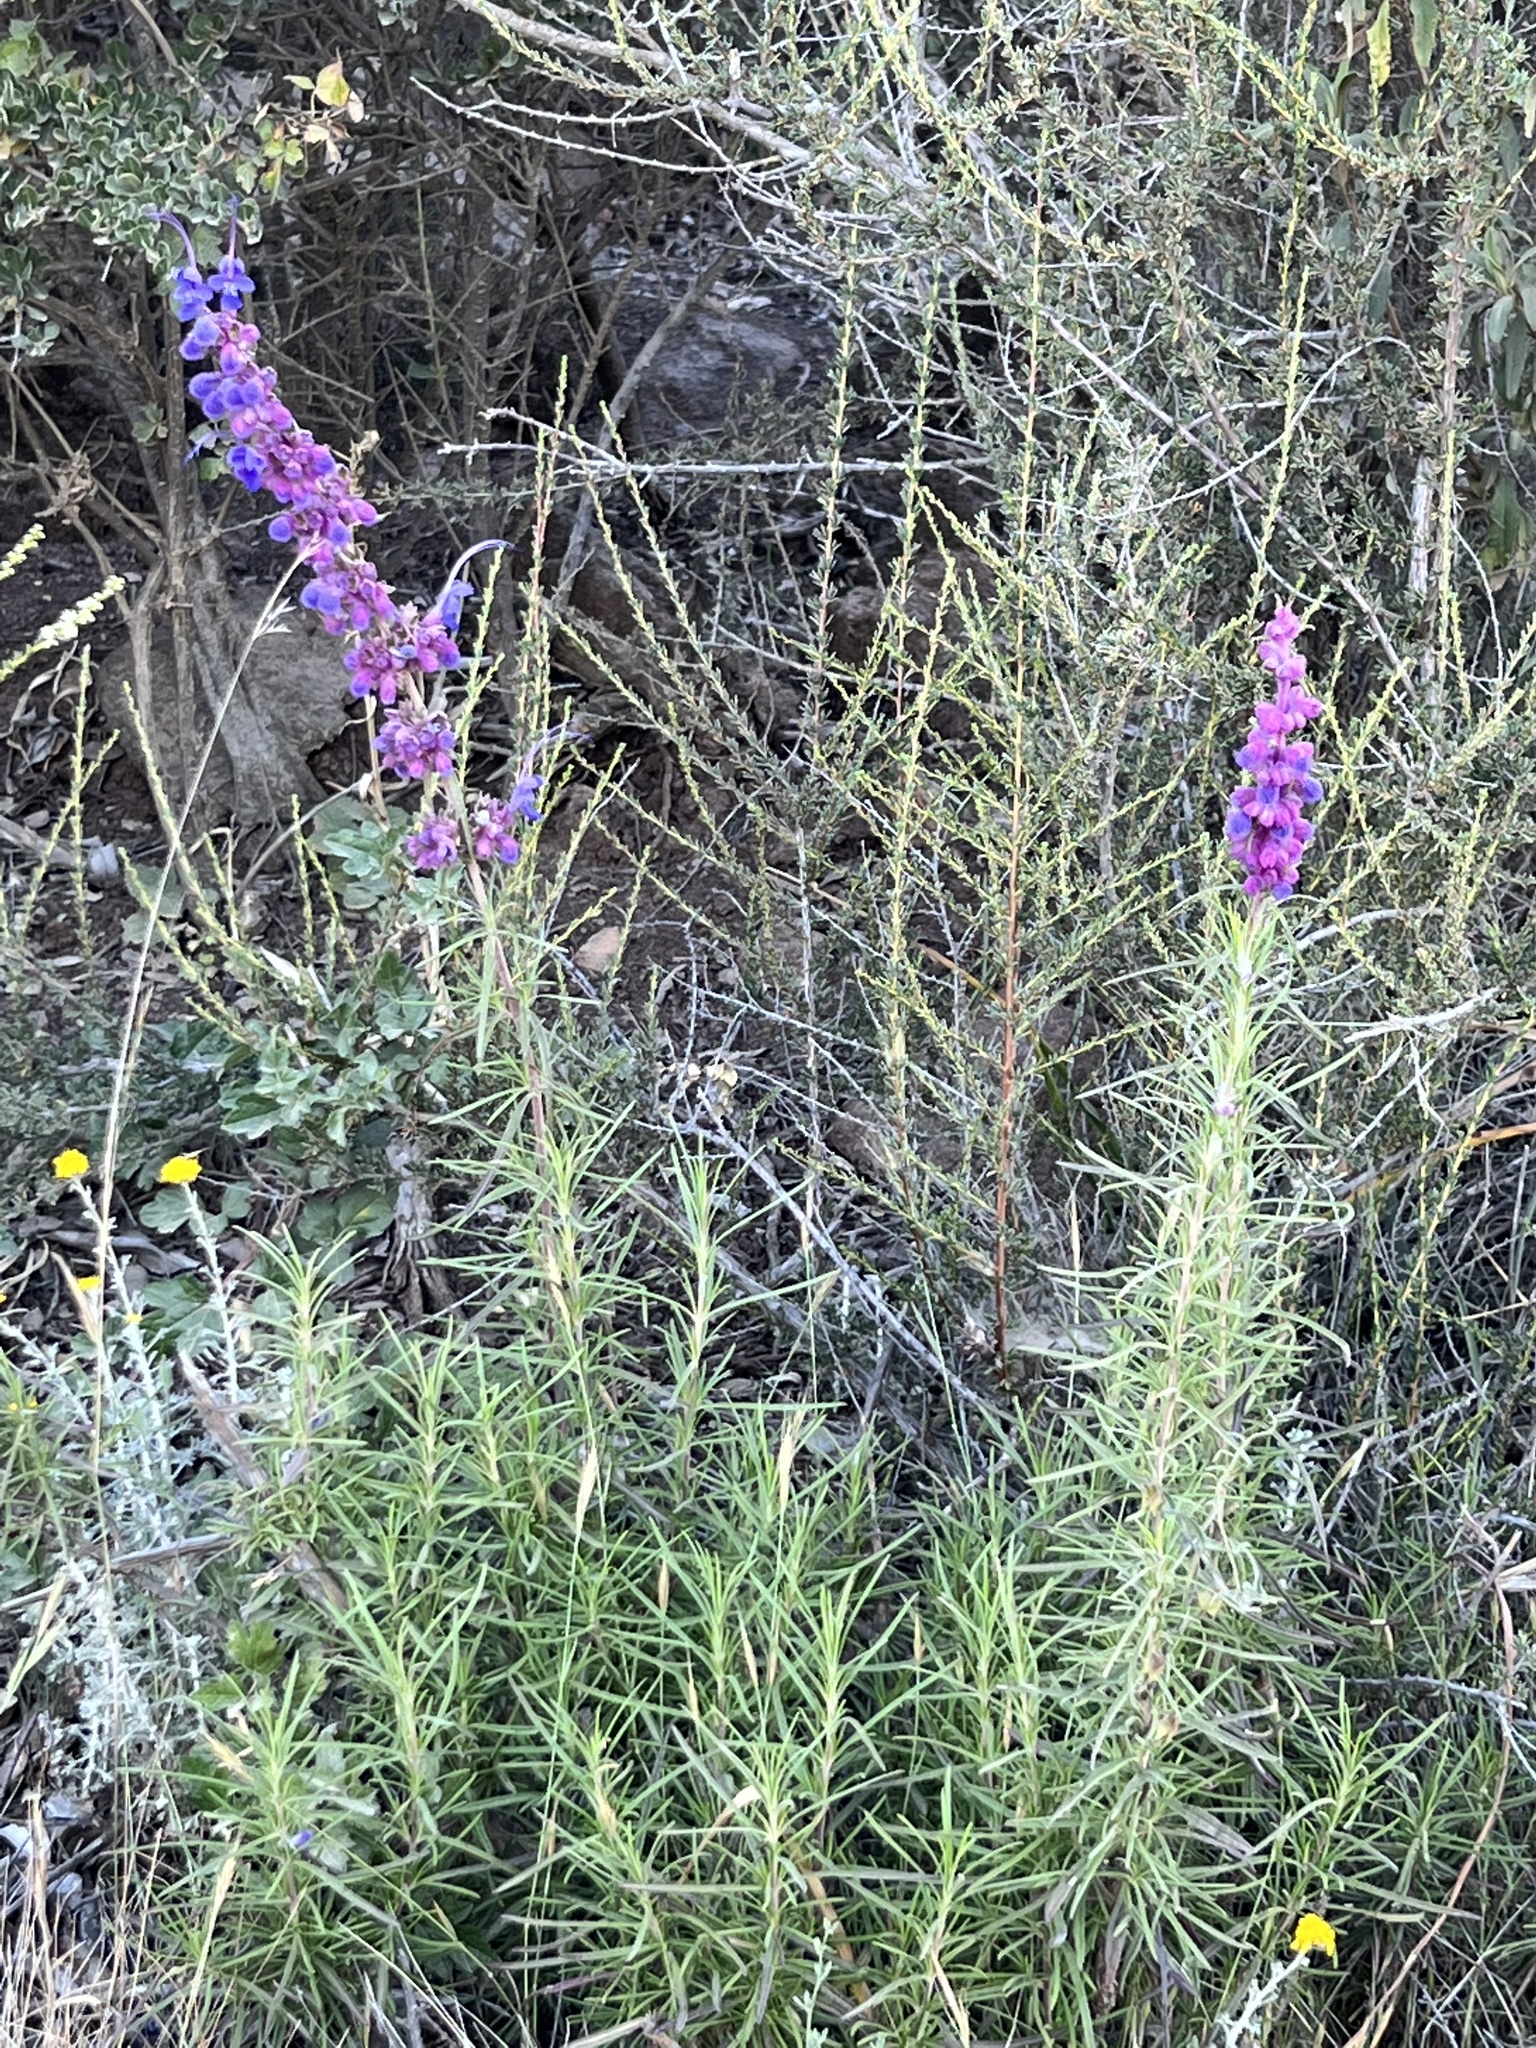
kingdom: Plantae
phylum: Tracheophyta
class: Magnoliopsida
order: Lamiales
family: Lamiaceae
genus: Trichostema
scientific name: Trichostema lanatum
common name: Woolly bluecurls
